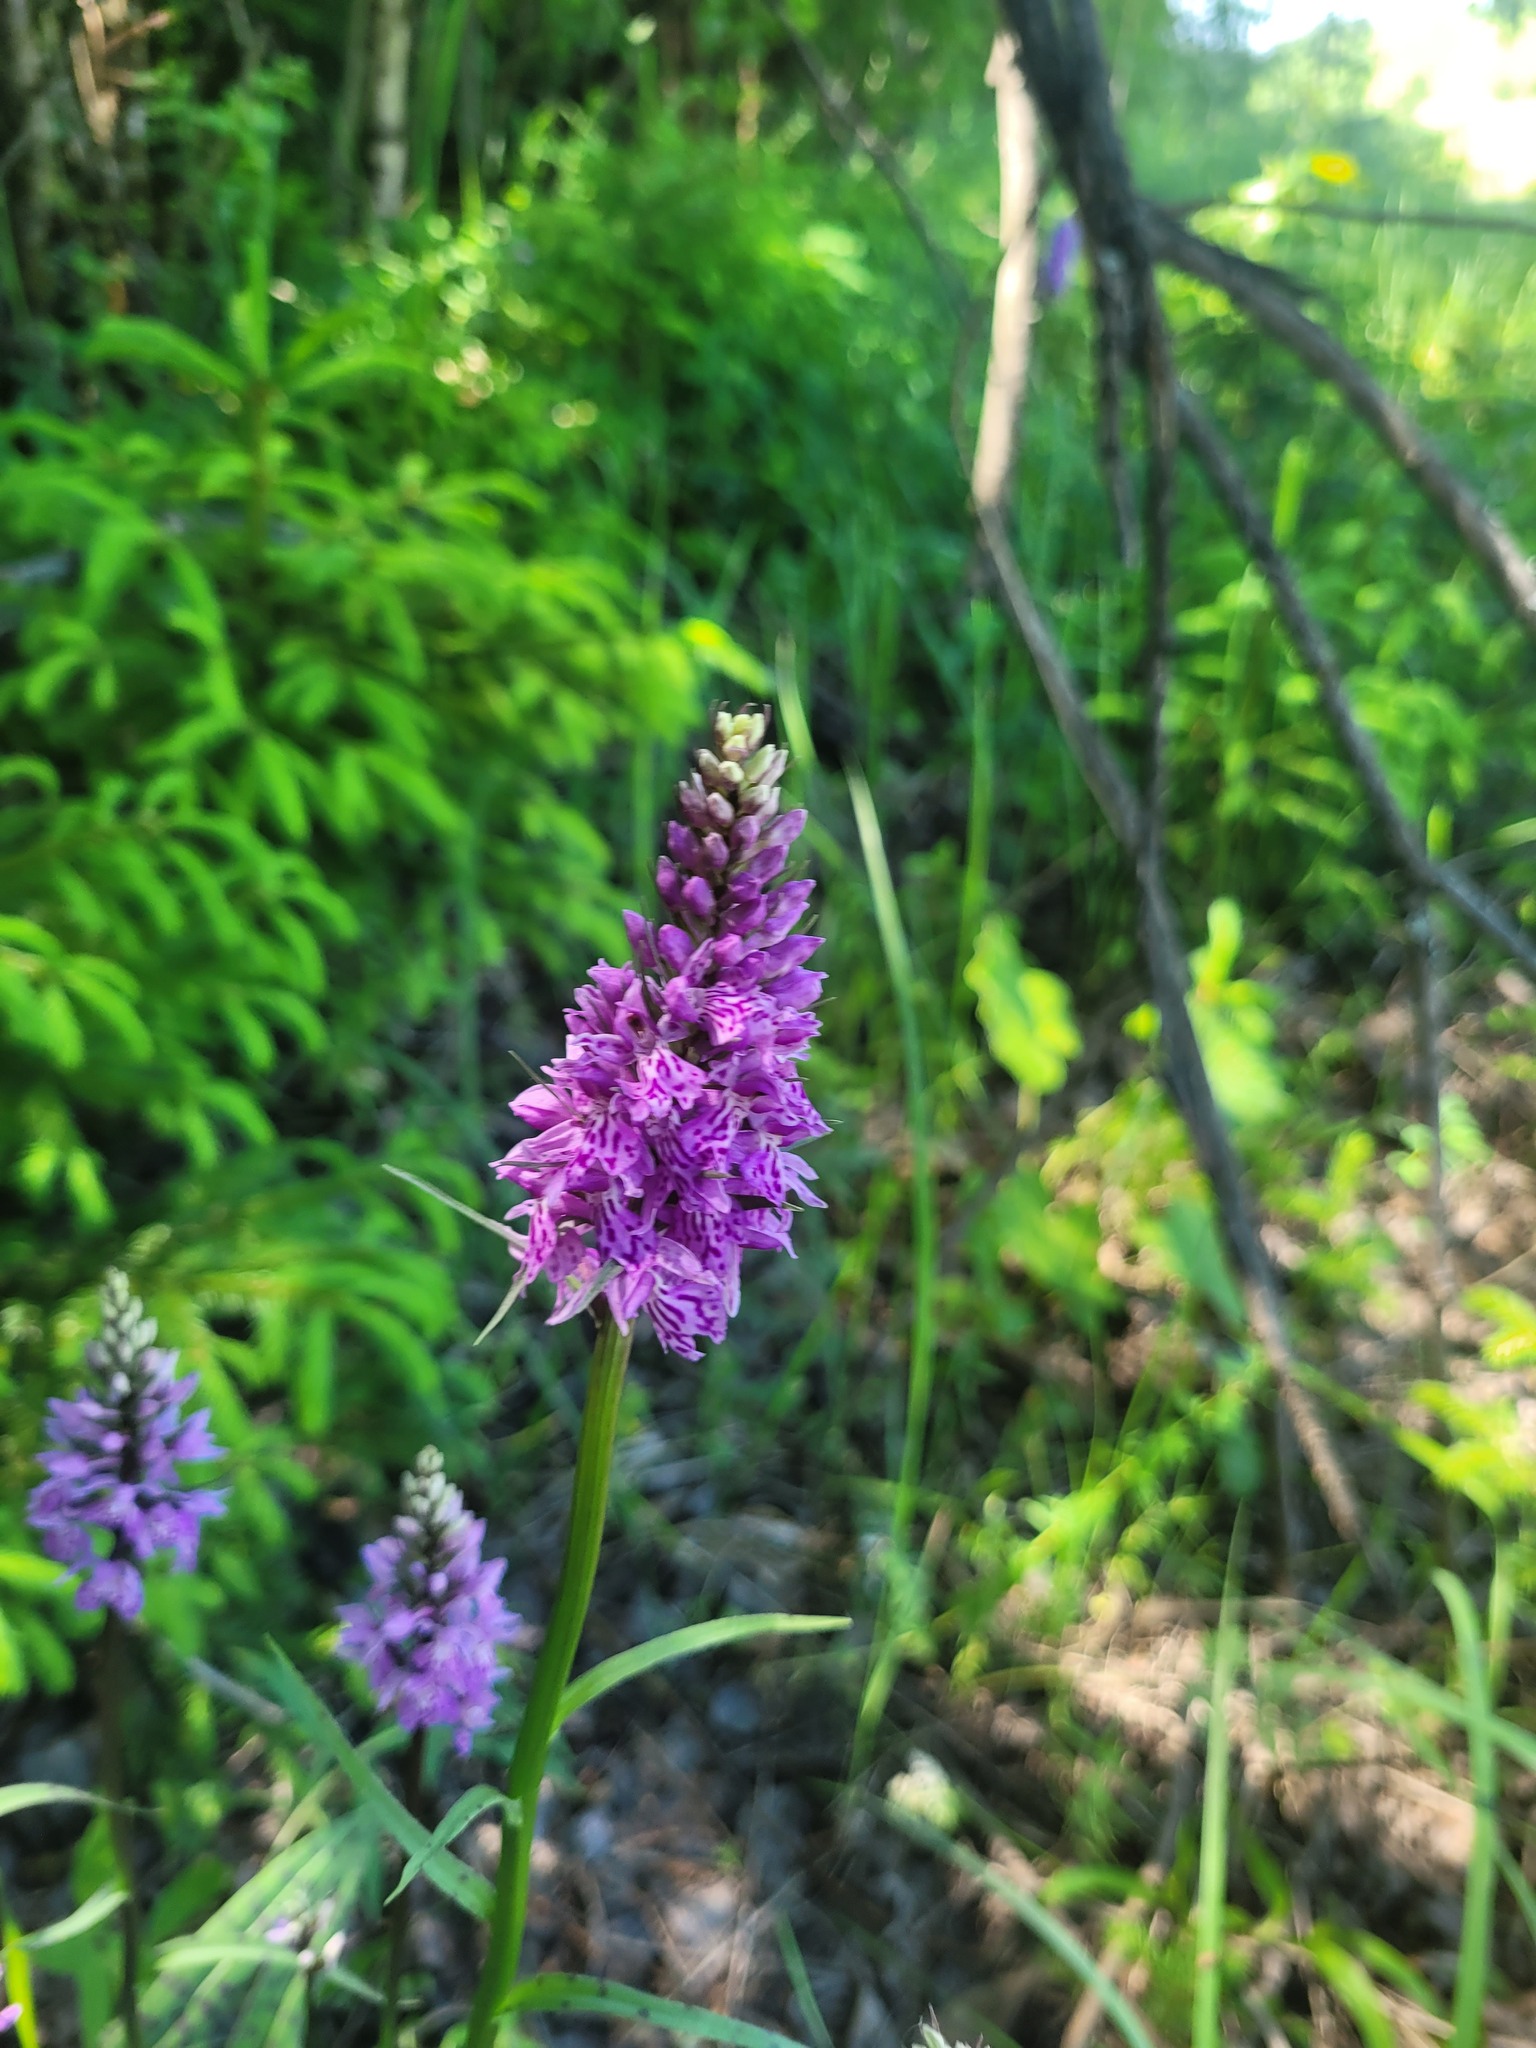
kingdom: Plantae
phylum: Tracheophyta
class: Liliopsida
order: Asparagales
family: Orchidaceae
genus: Dactylorhiza
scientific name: Dactylorhiza maculata
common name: Heath spotted-orchid
